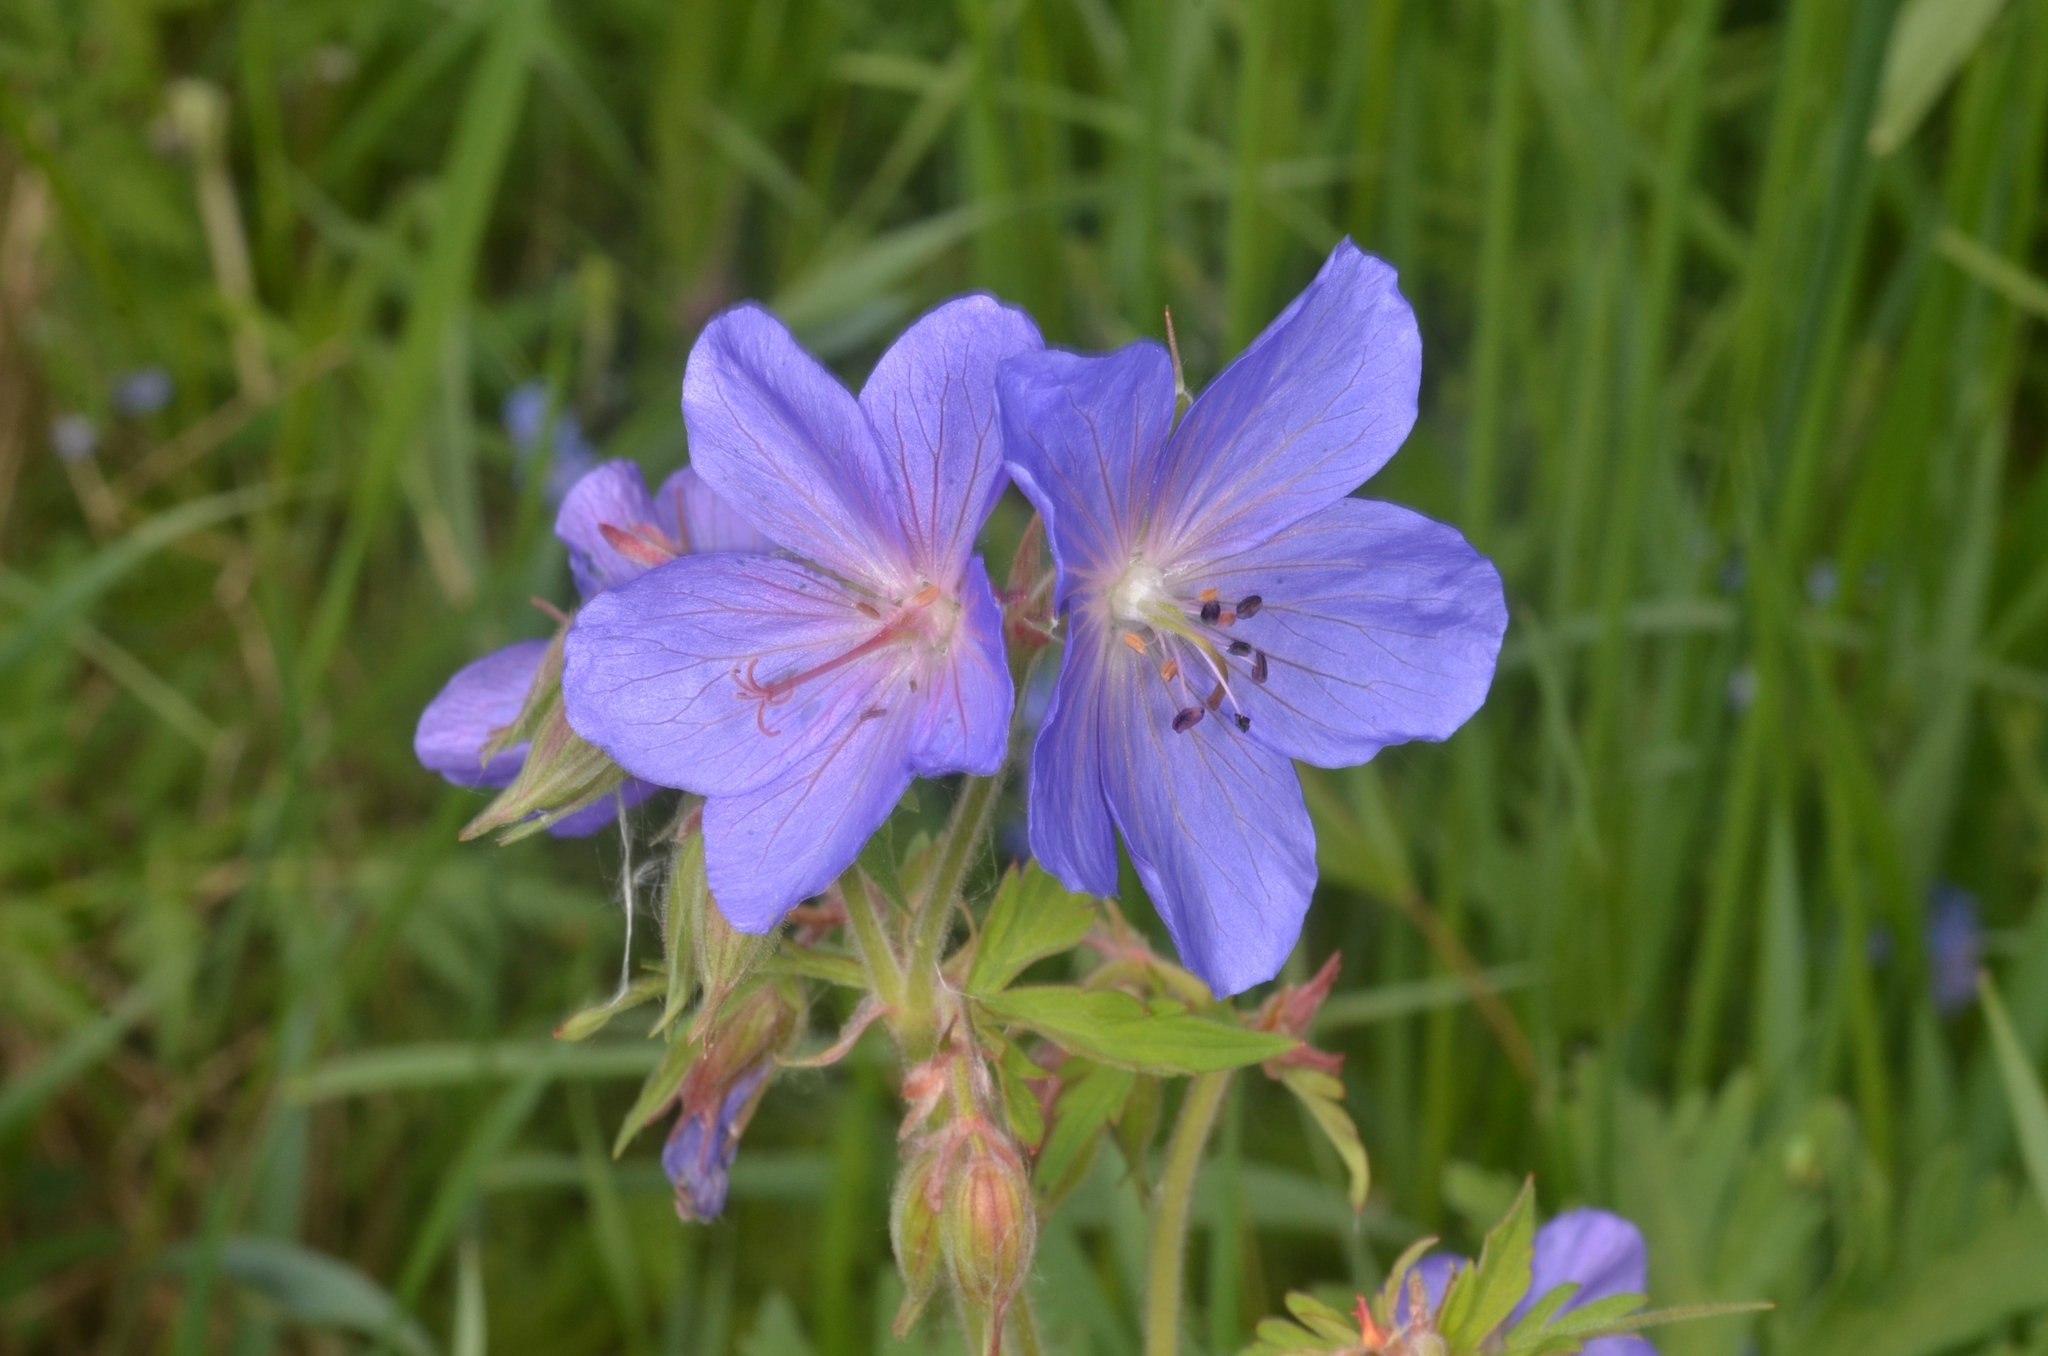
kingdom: Plantae
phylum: Tracheophyta
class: Magnoliopsida
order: Geraniales
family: Geraniaceae
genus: Geranium
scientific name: Geranium pratense
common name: Meadow crane's-bill
